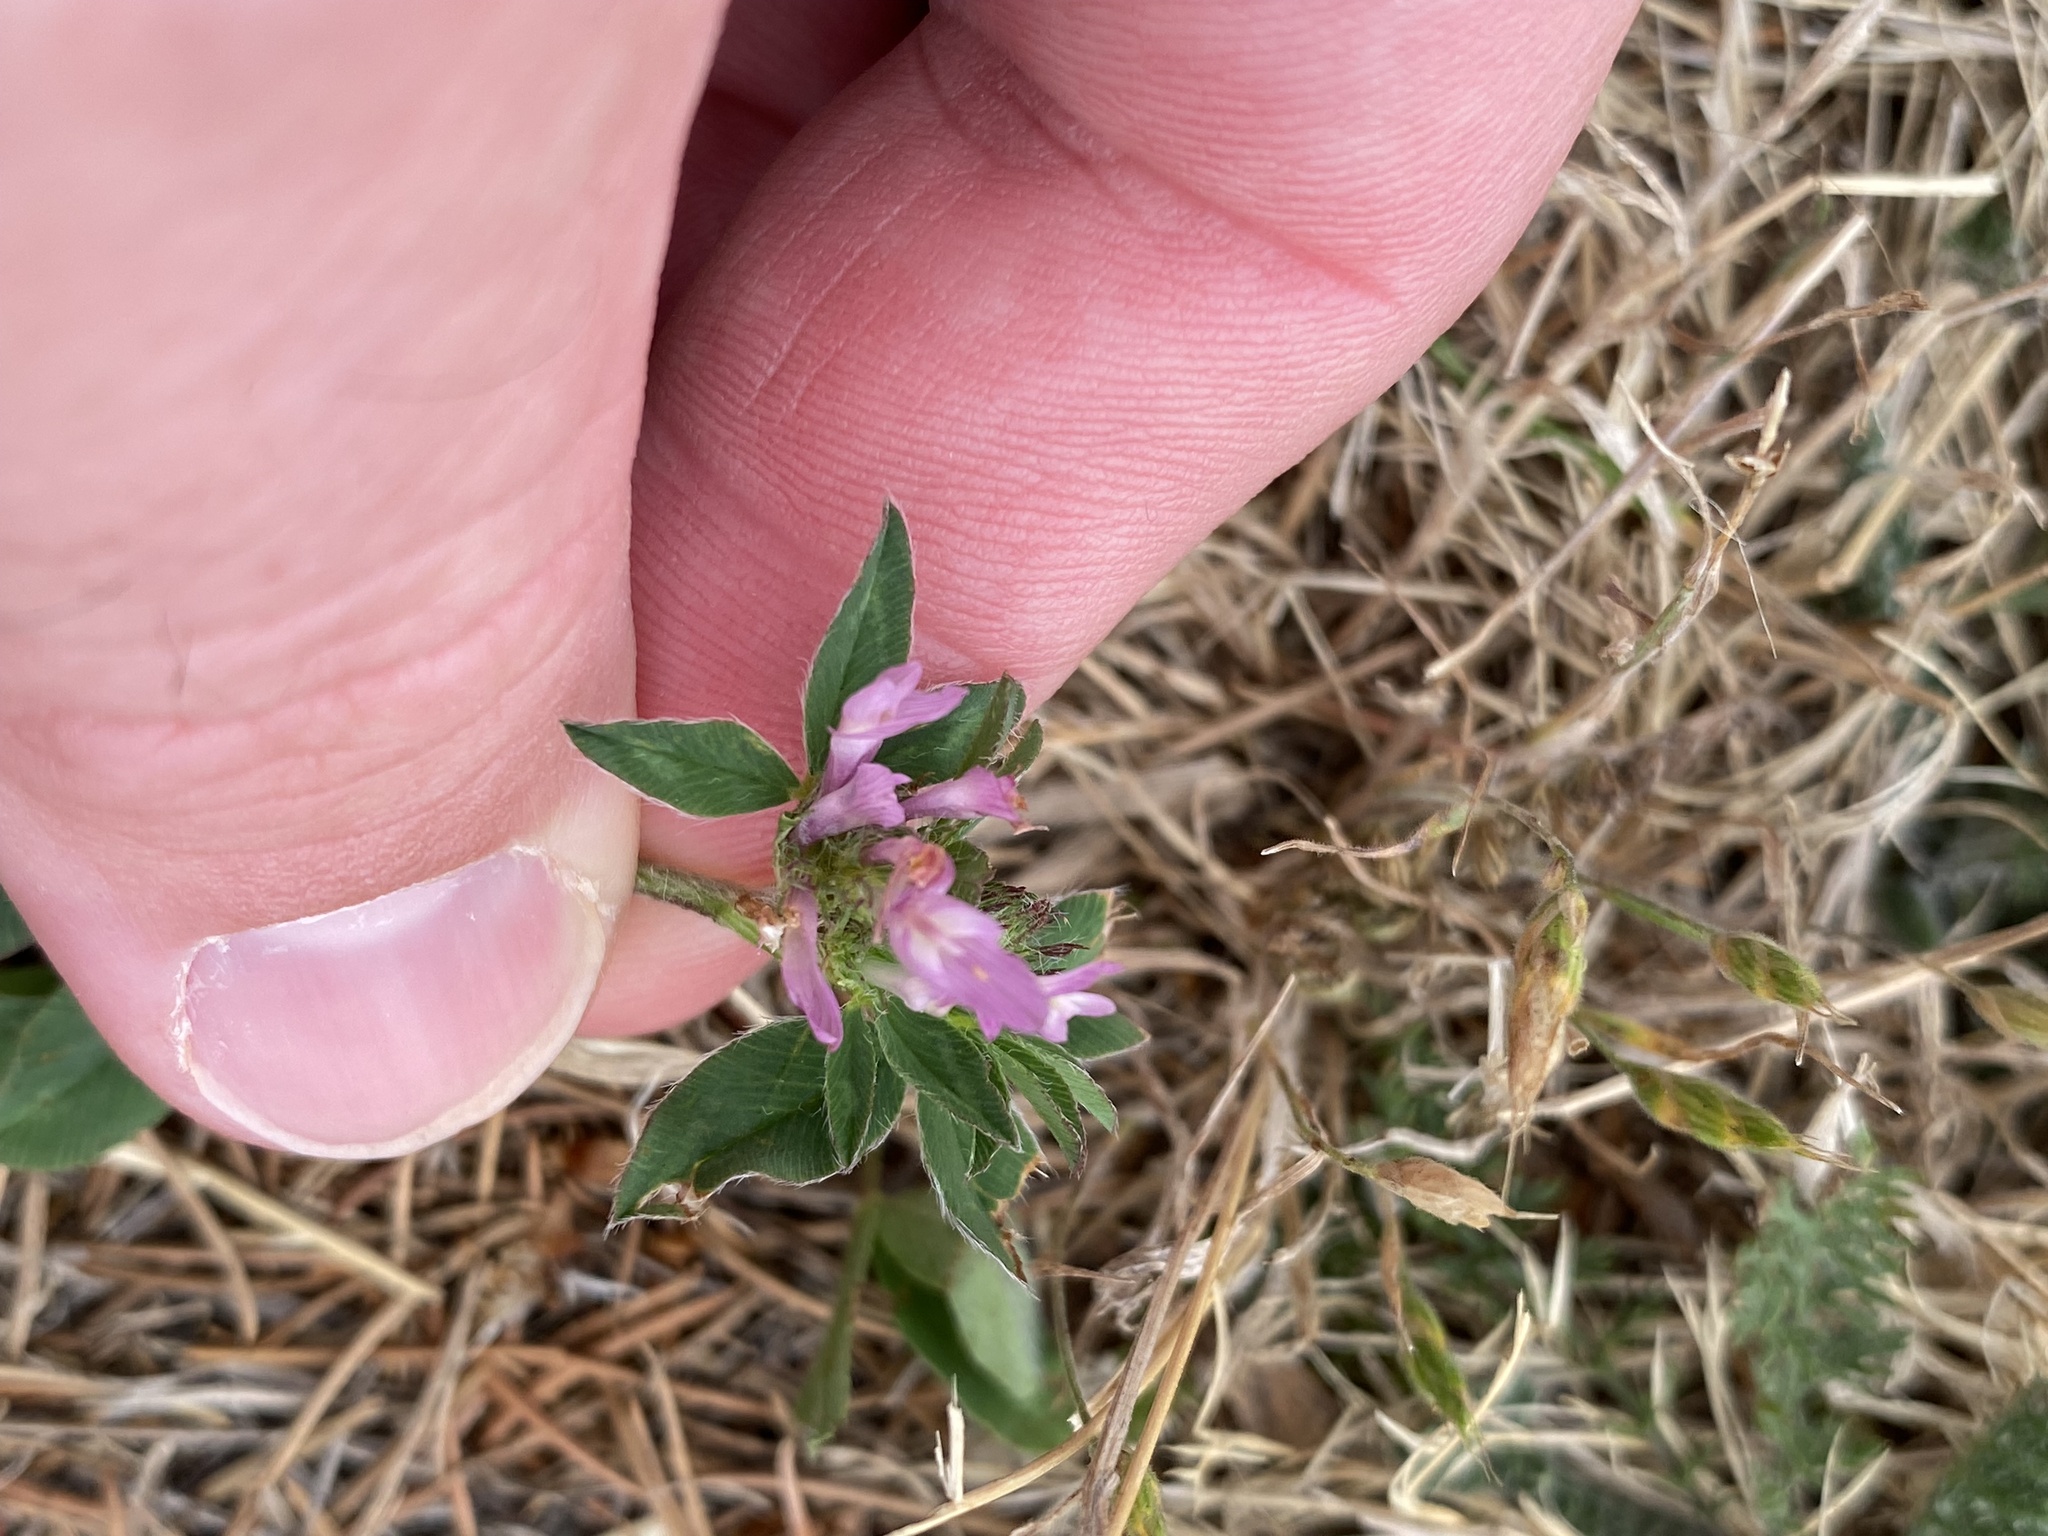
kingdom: Plantae
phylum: Tracheophyta
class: Magnoliopsida
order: Fabales
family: Fabaceae
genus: Trifolium
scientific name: Trifolium pratense
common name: Red clover
